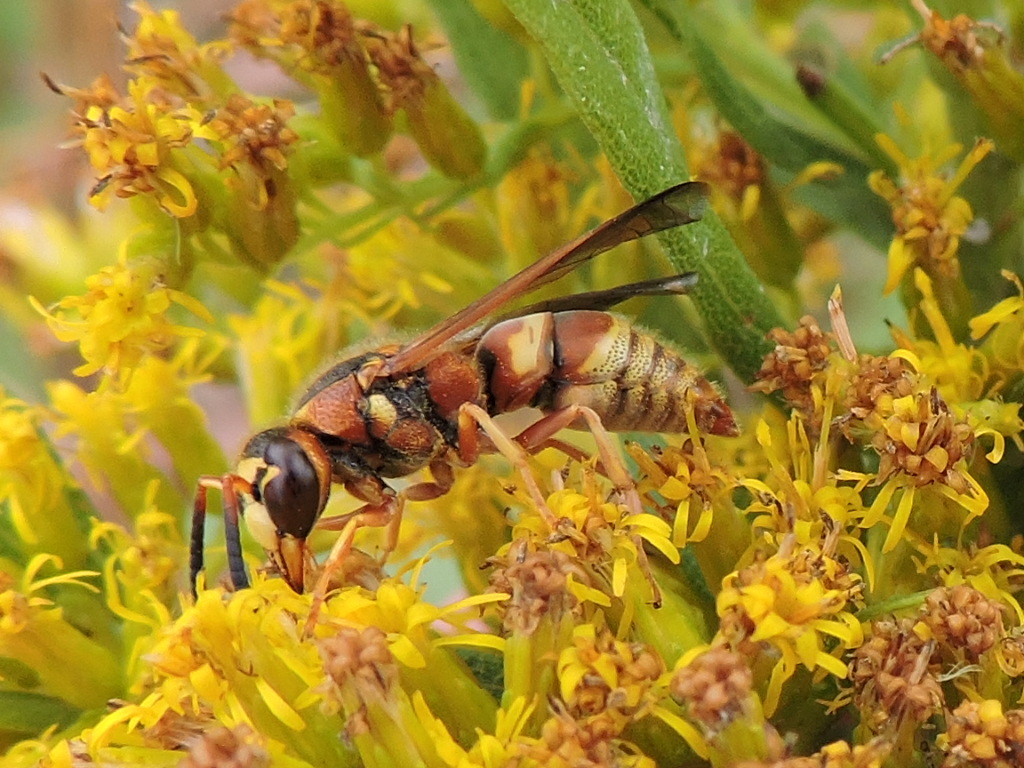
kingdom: Animalia
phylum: Arthropoda
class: Insecta
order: Hymenoptera
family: Eumenidae
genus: Euodynerus
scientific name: Euodynerus pratensis
